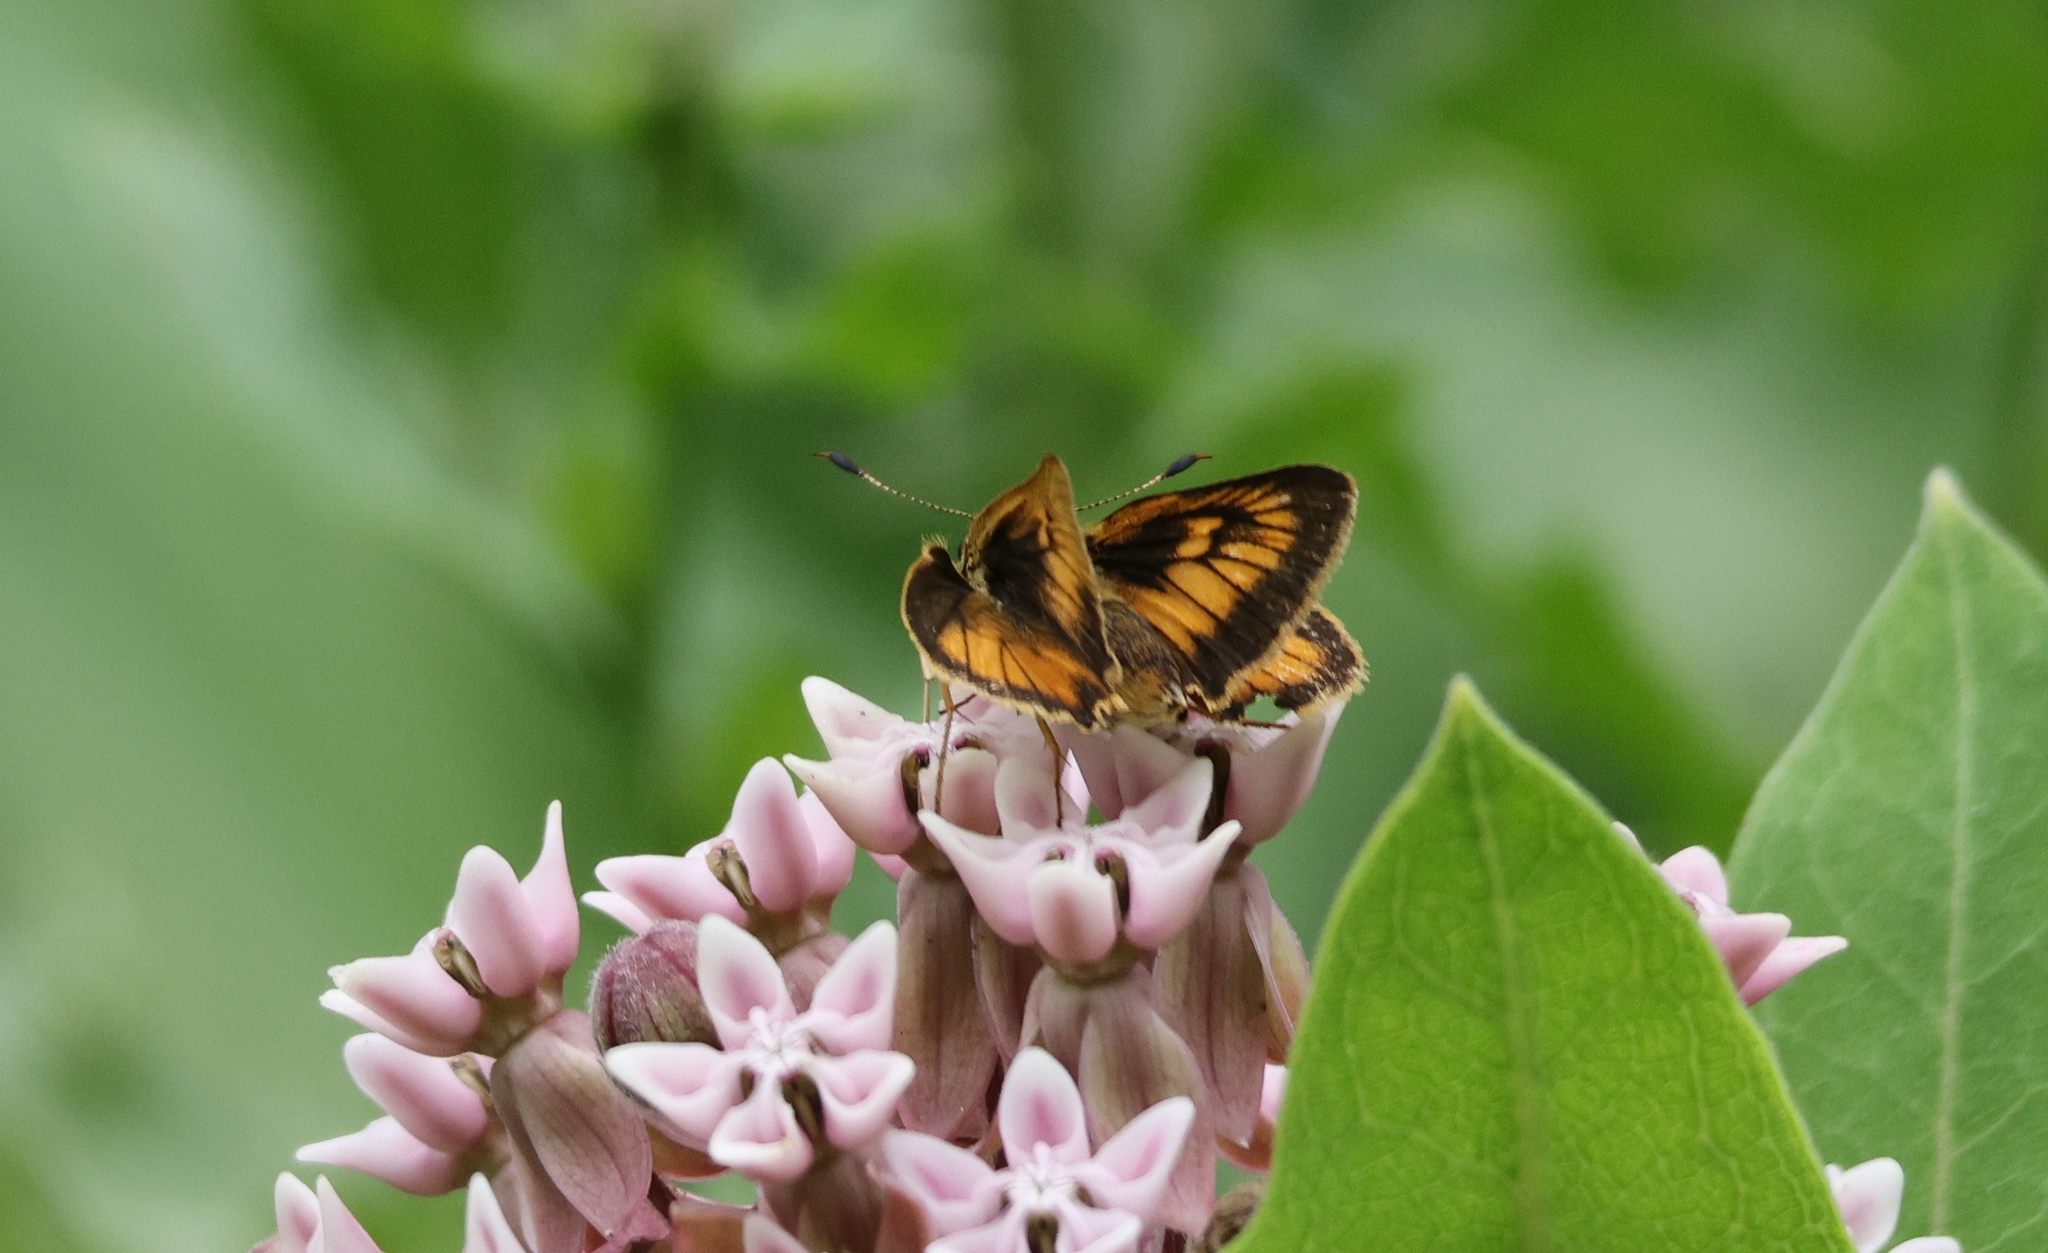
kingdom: Animalia
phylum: Arthropoda
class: Insecta
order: Lepidoptera
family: Hesperiidae
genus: Atrytone
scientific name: Atrytone delaware
